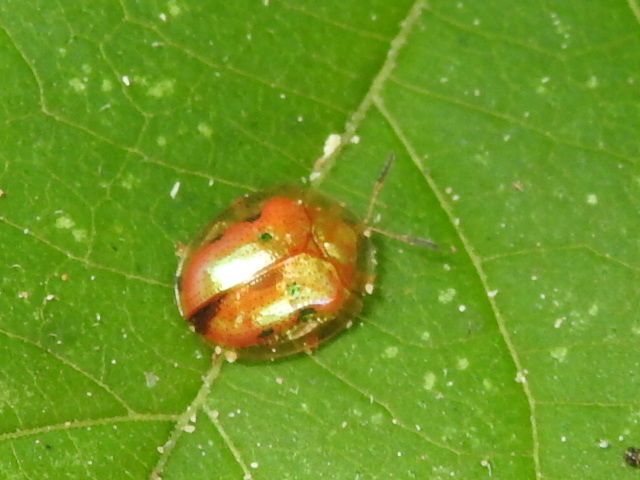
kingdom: Animalia
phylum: Arthropoda
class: Insecta
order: Coleoptera
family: Chrysomelidae
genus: Charidotella
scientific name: Charidotella sexpunctata
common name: Golden tortoise beetle
